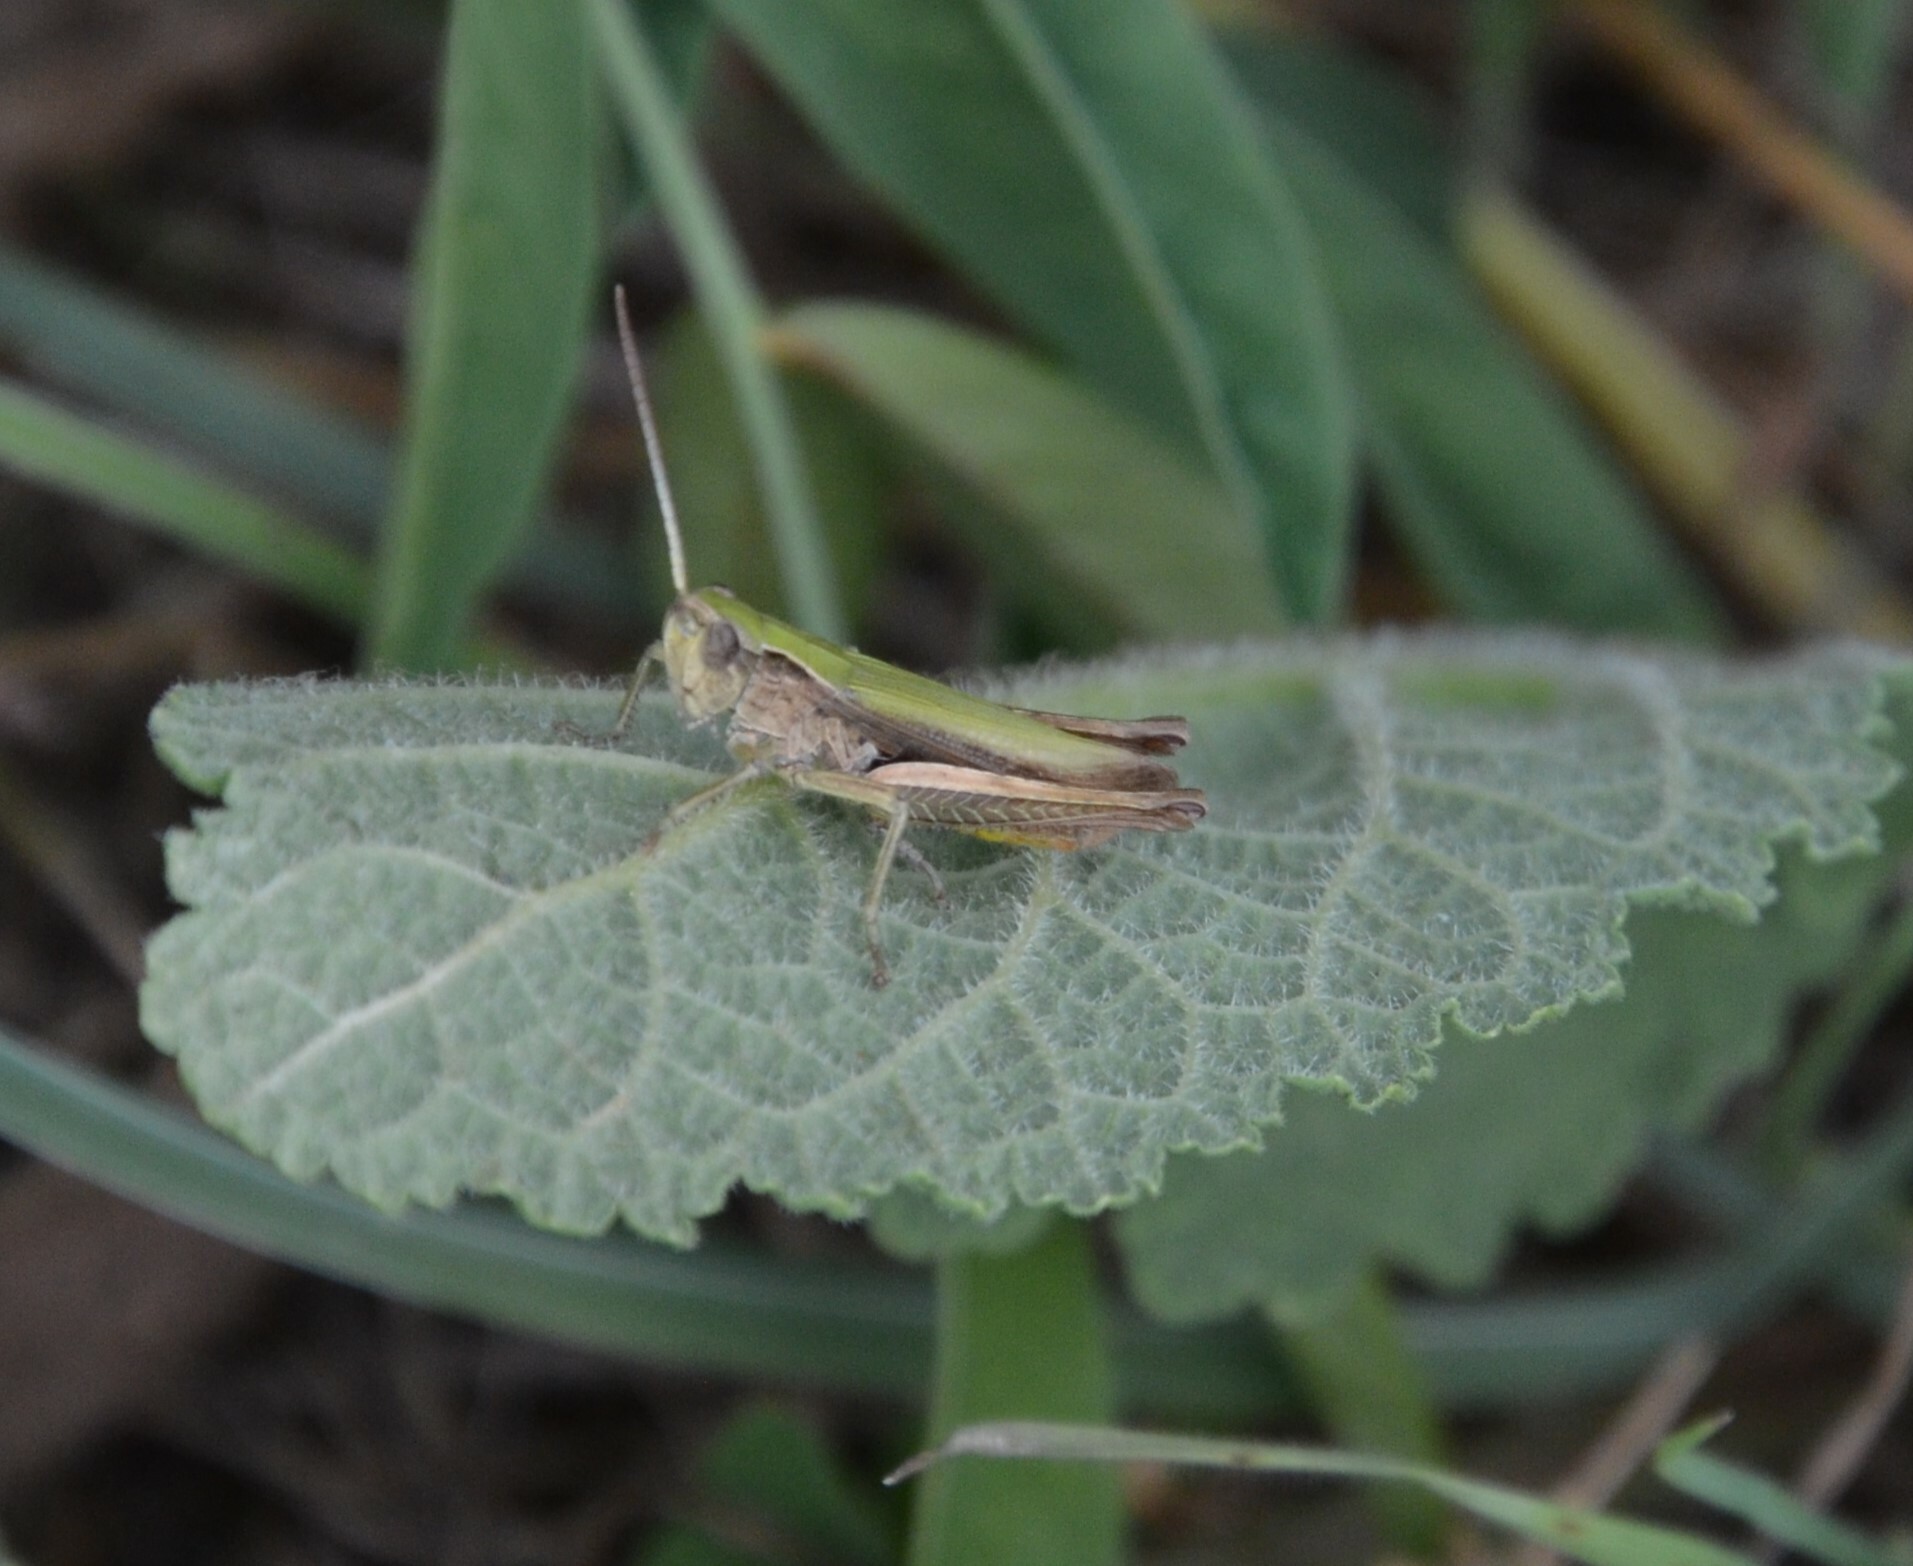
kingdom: Animalia
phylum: Arthropoda
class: Insecta
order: Orthoptera
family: Acrididae
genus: Chorthippus
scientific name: Chorthippus dorsatus
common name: Steppe grasshopper
